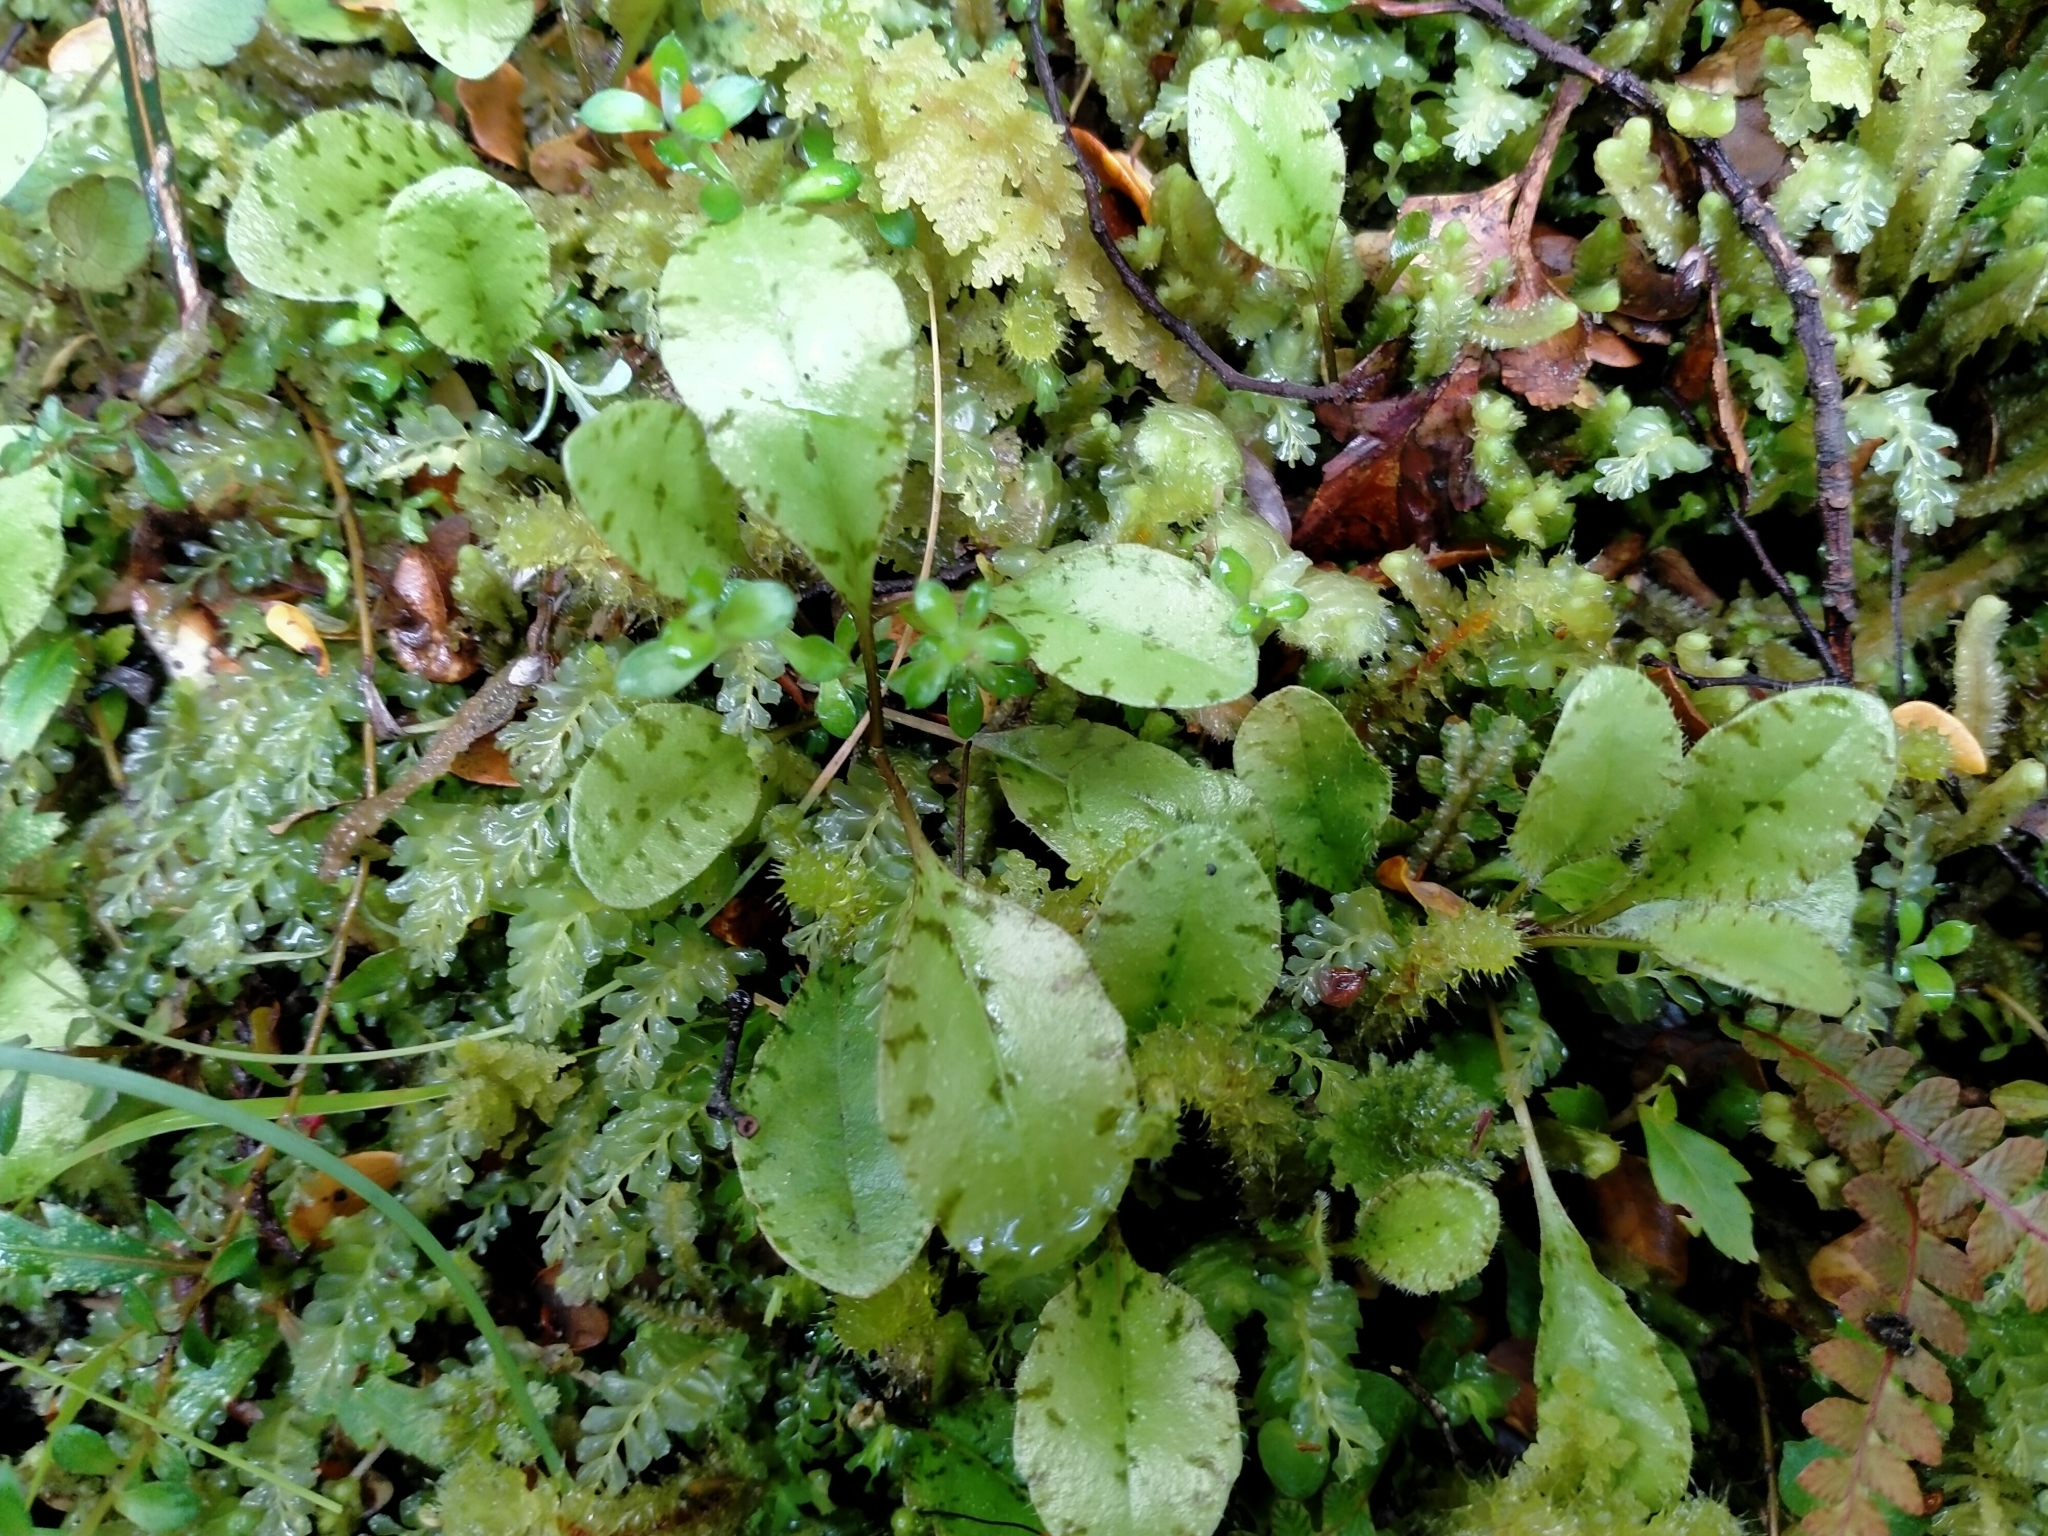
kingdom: Plantae
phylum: Tracheophyta
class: Magnoliopsida
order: Lamiales
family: Mazaceae
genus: Mazus
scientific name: Mazus radicans
